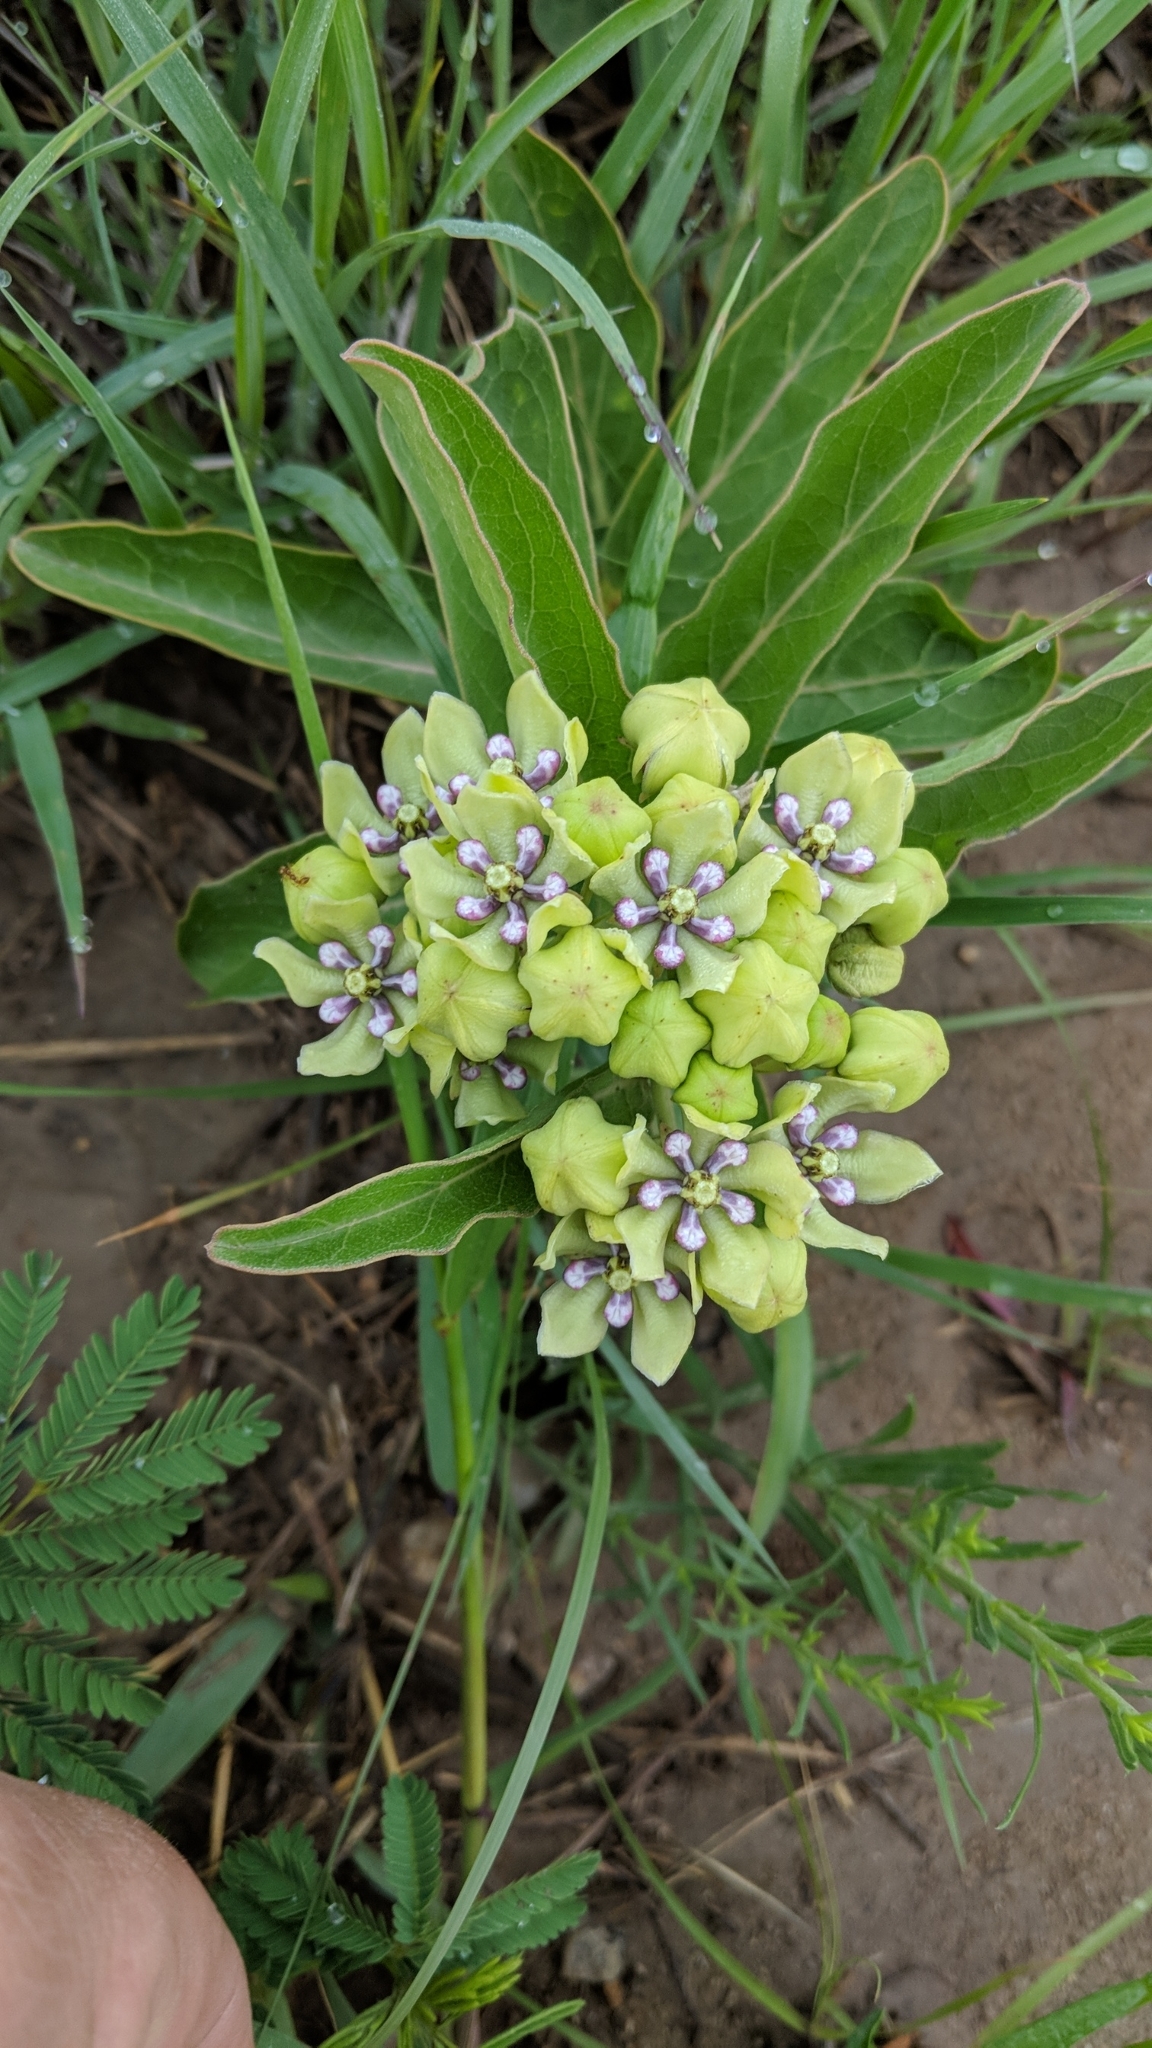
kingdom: Plantae
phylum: Tracheophyta
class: Magnoliopsida
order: Gentianales
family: Apocynaceae
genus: Asclepias
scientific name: Asclepias viridis
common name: Antelope-horns
